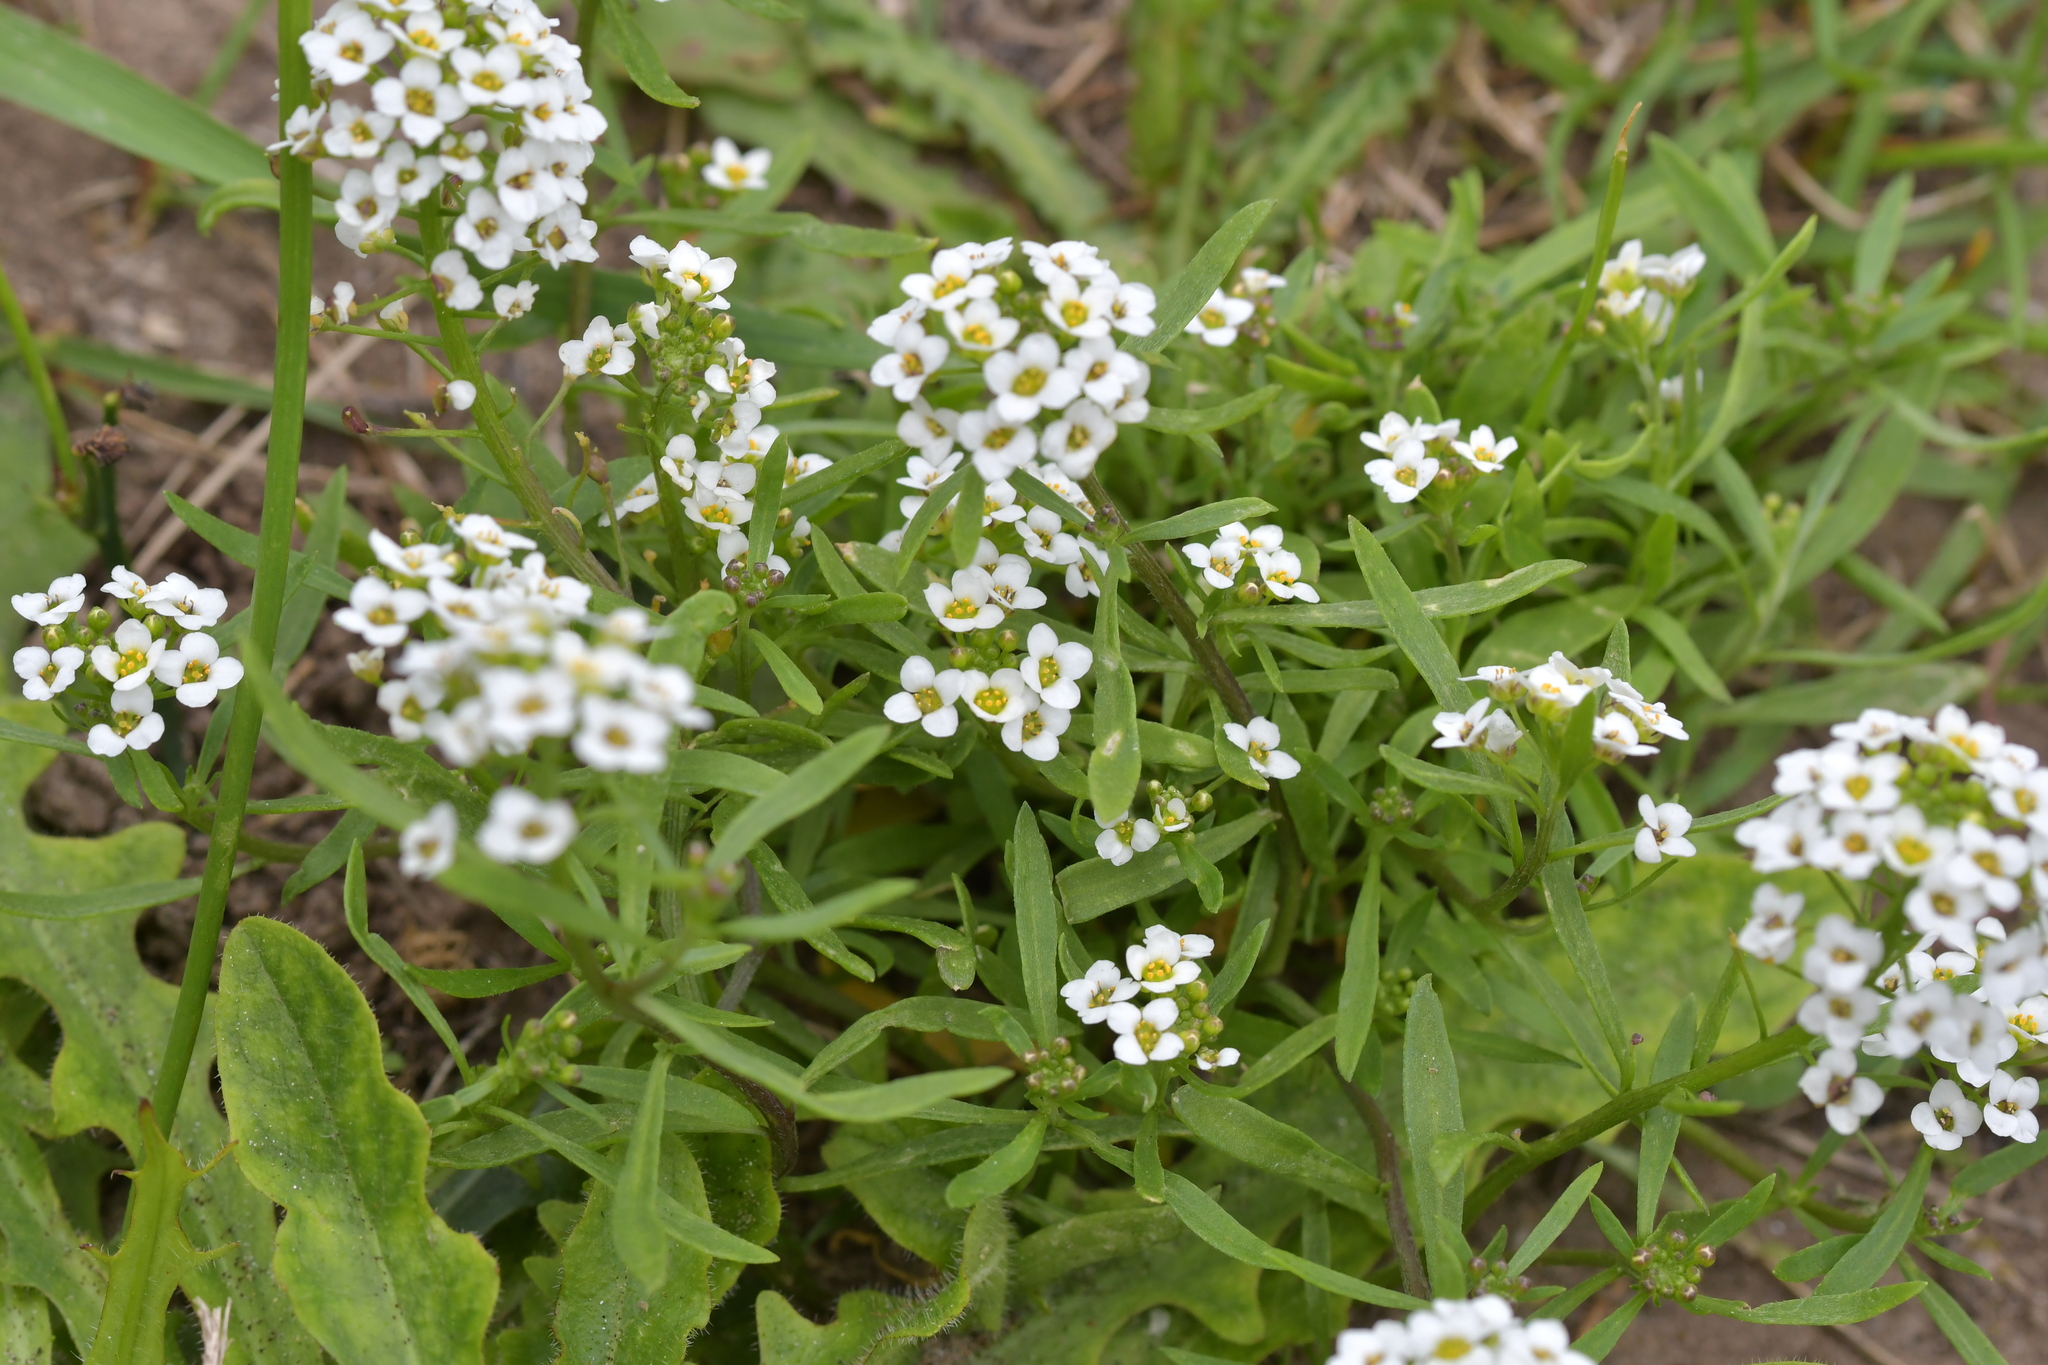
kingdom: Plantae
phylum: Tracheophyta
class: Magnoliopsida
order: Brassicales
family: Brassicaceae
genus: Lobularia
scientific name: Lobularia maritima
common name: Sweet alison
